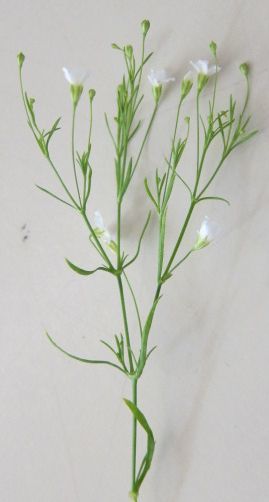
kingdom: Plantae
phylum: Tracheophyta
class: Magnoliopsida
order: Caryophyllales
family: Caryophyllaceae
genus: Psammophiliella
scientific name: Psammophiliella muralis
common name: Cushion baby's-breath
